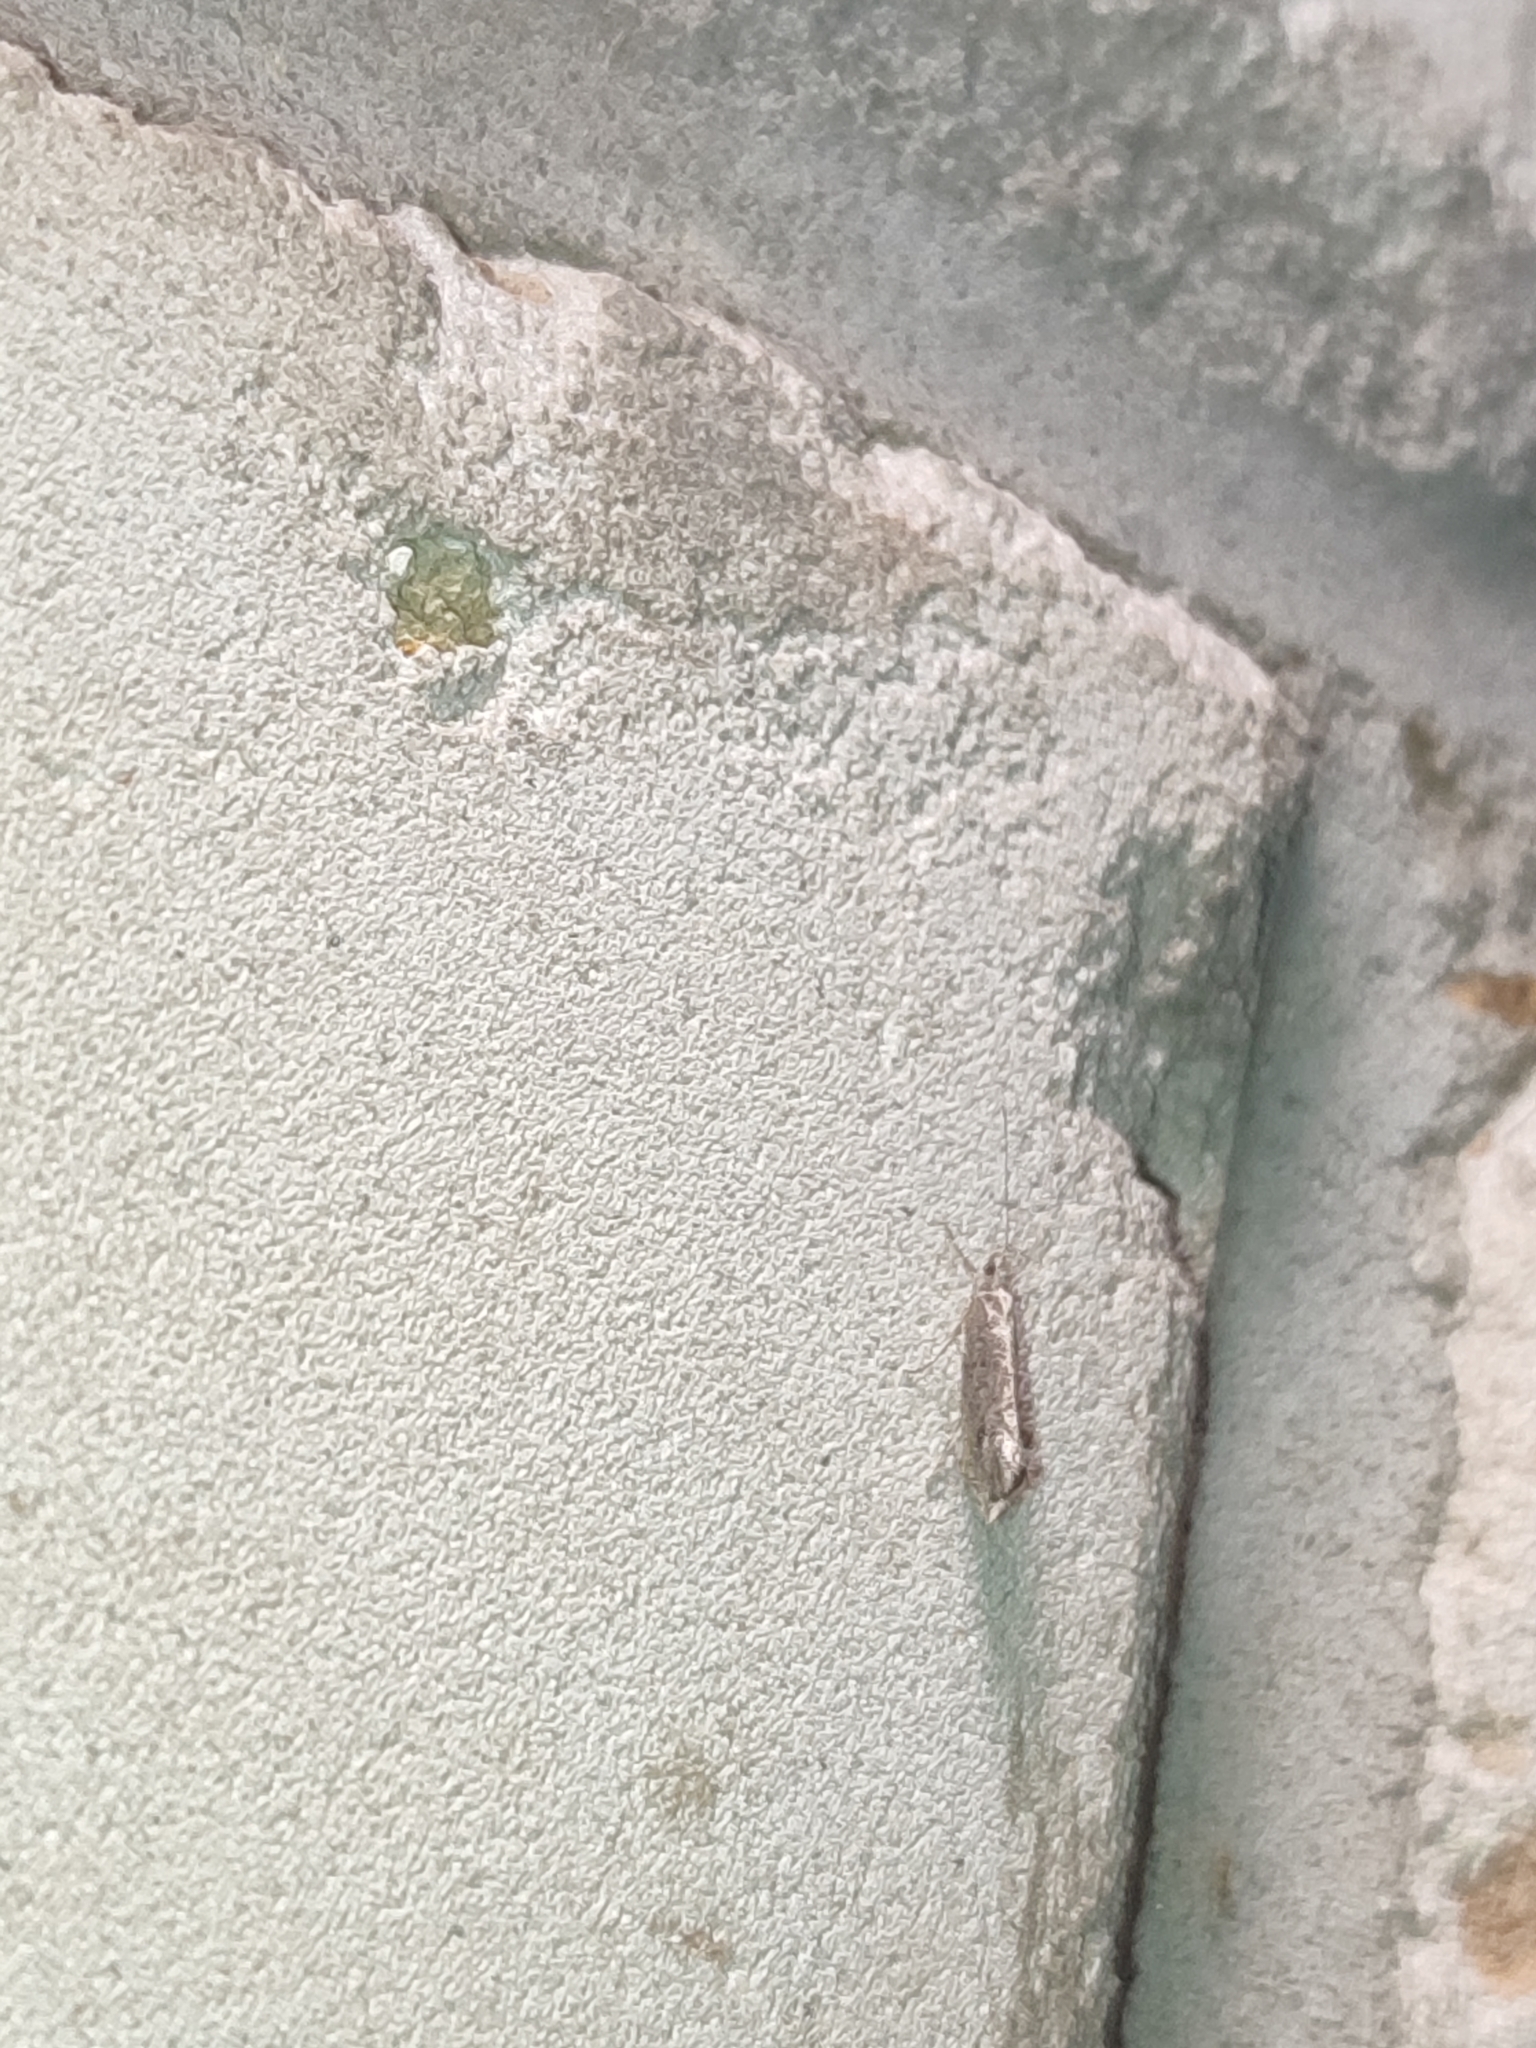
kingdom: Animalia
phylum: Arthropoda
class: Insecta
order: Lepidoptera
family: Ypsolophidae
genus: Ypsolopha
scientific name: Ypsolopha chazariella
